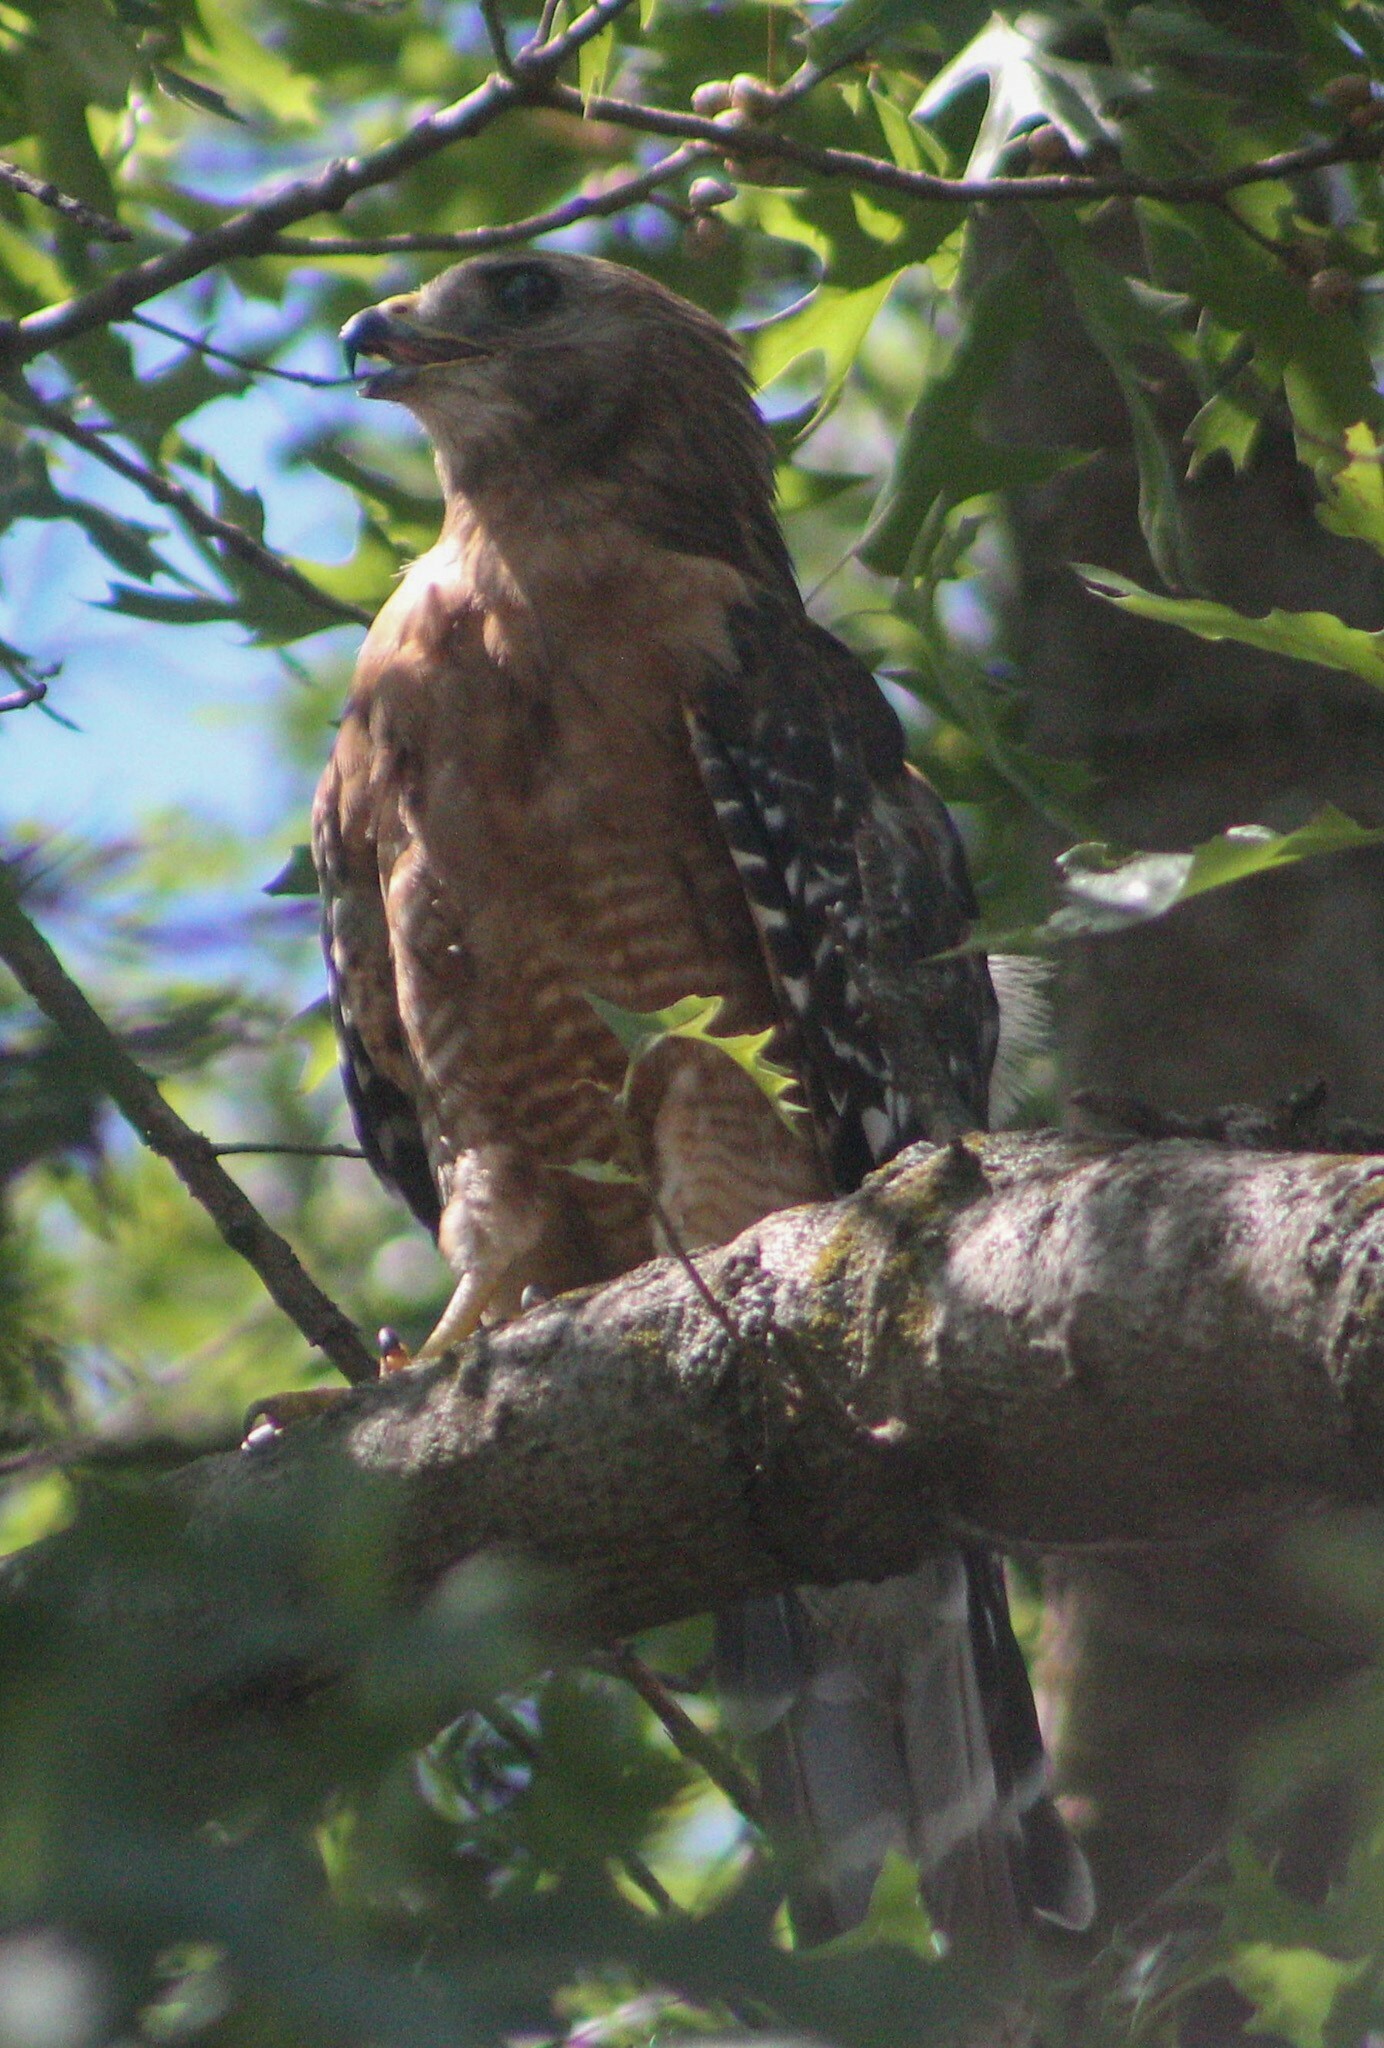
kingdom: Animalia
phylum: Chordata
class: Aves
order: Accipitriformes
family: Accipitridae
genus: Buteo
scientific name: Buteo lineatus
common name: Red-shouldered hawk
